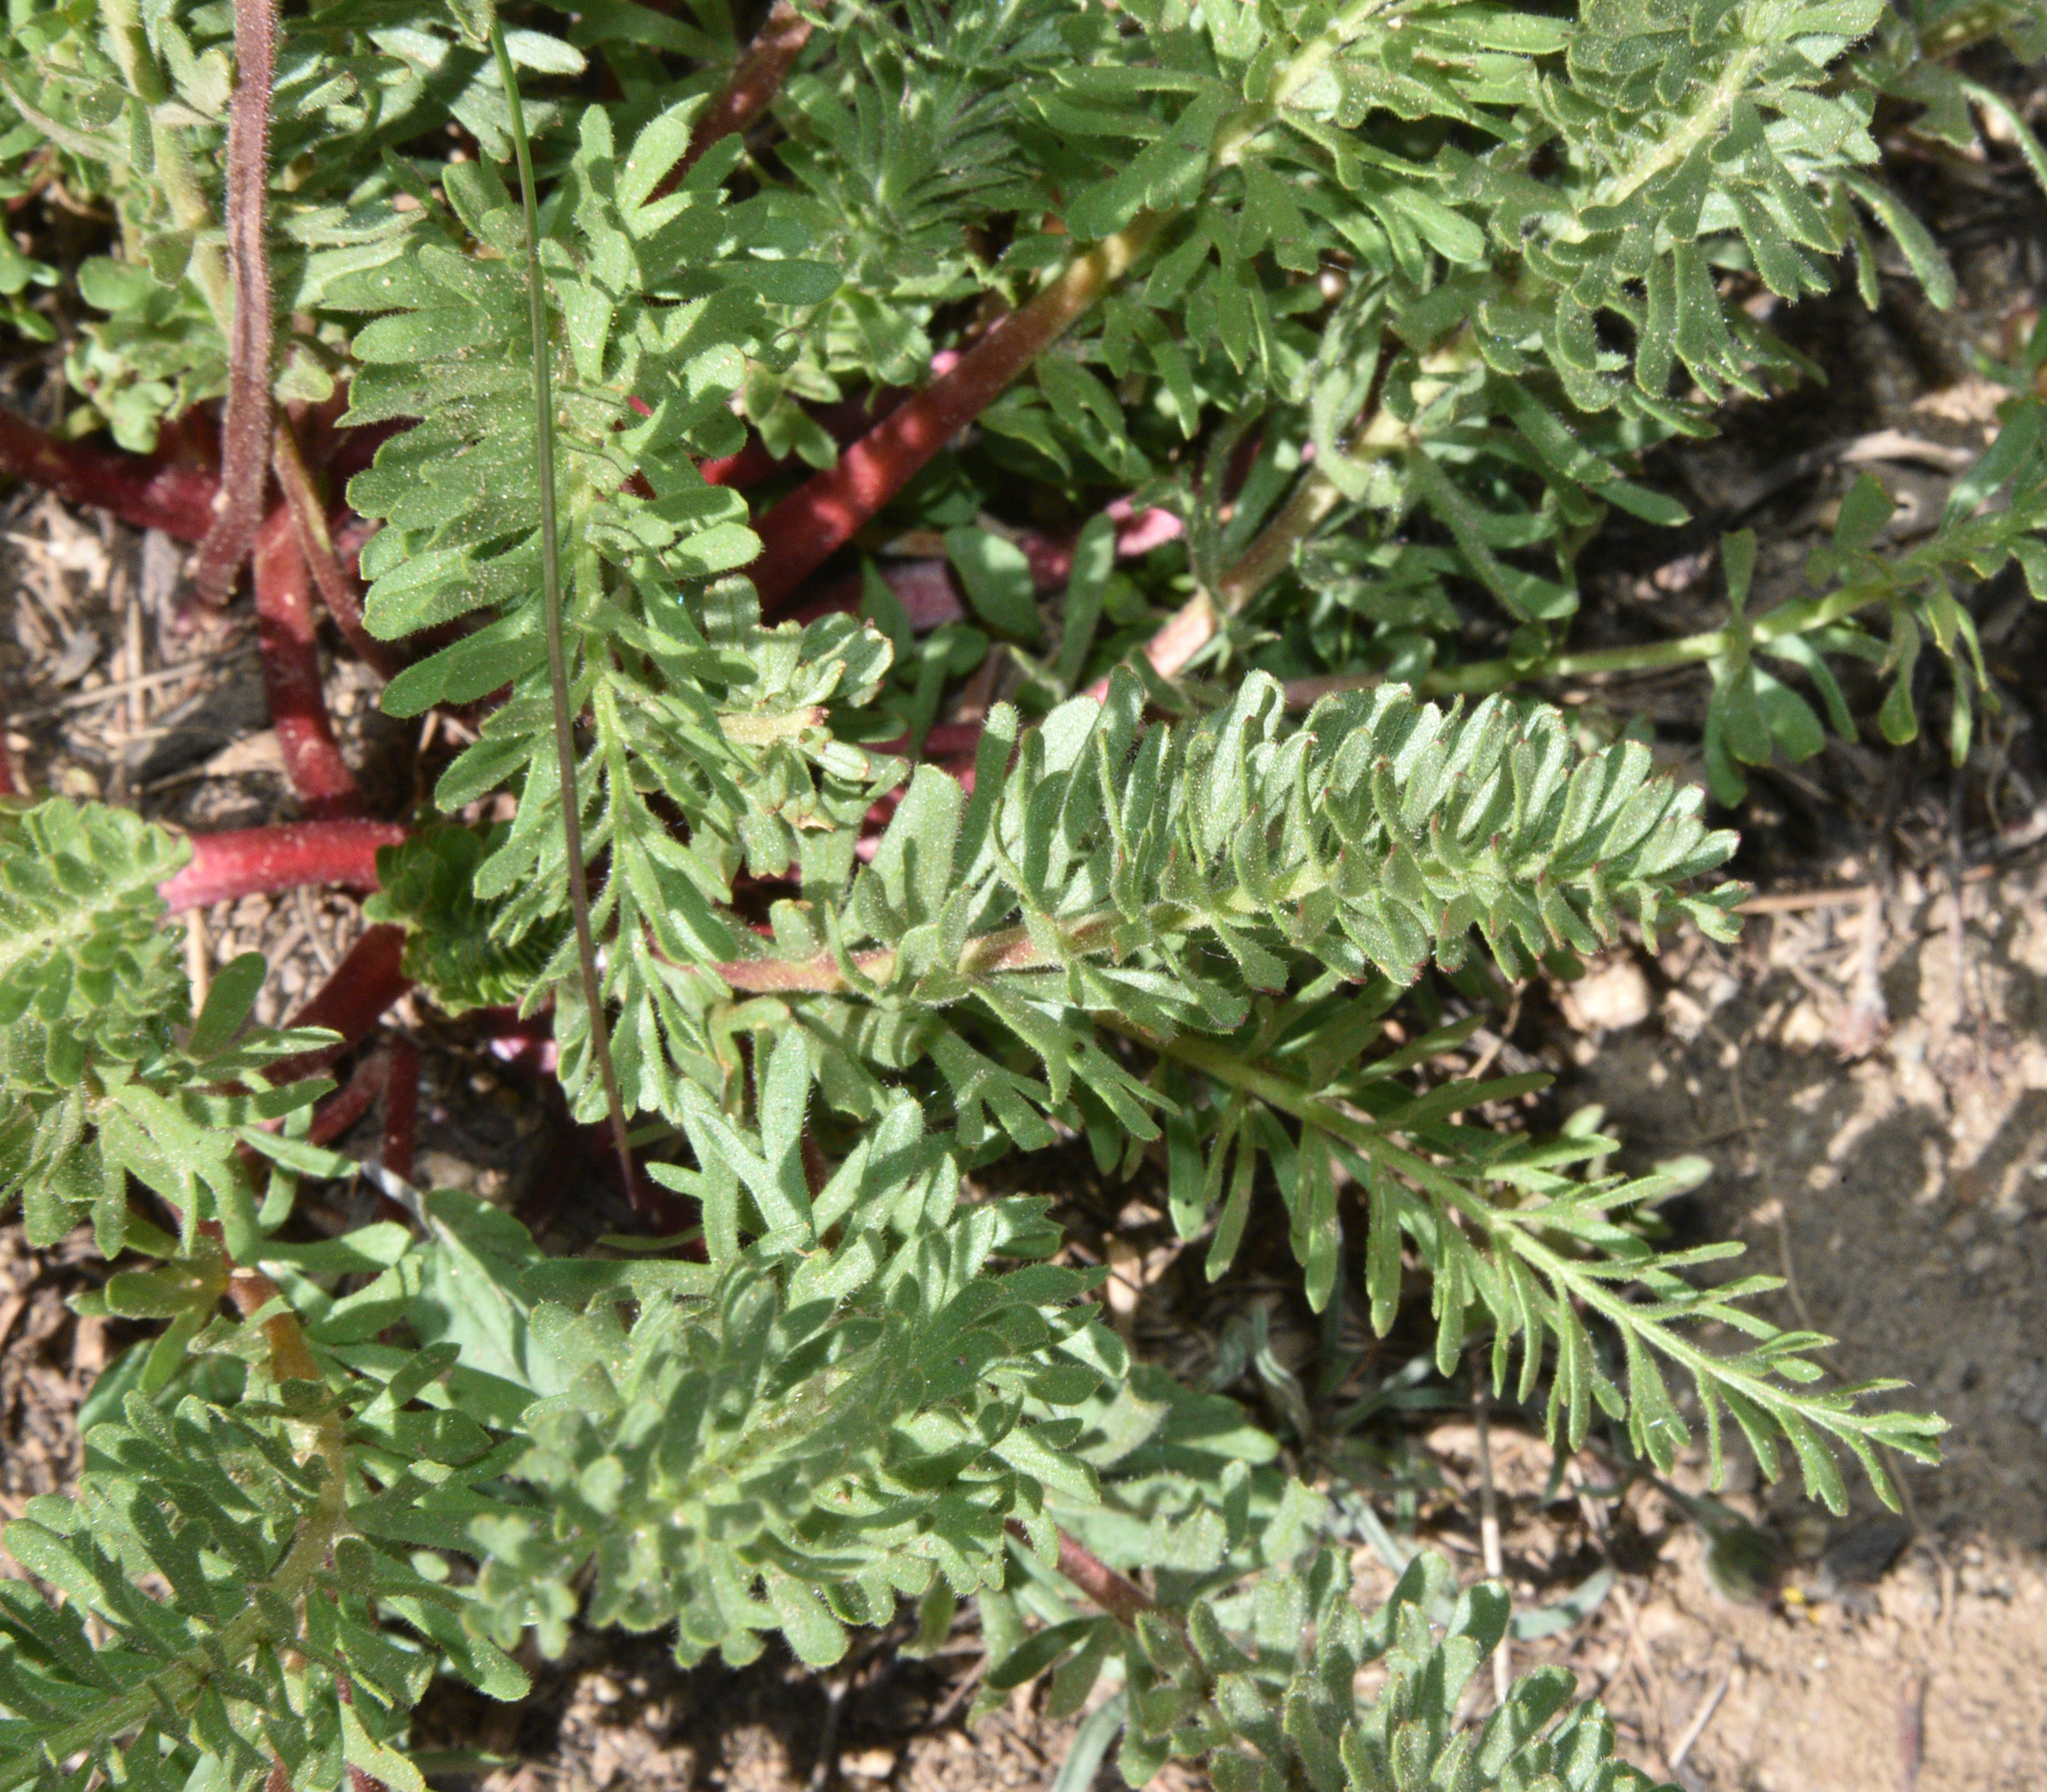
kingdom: Plantae
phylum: Tracheophyta
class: Magnoliopsida
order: Rosales
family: Rosaceae
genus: Potentilla
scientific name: Potentilla gordonii
